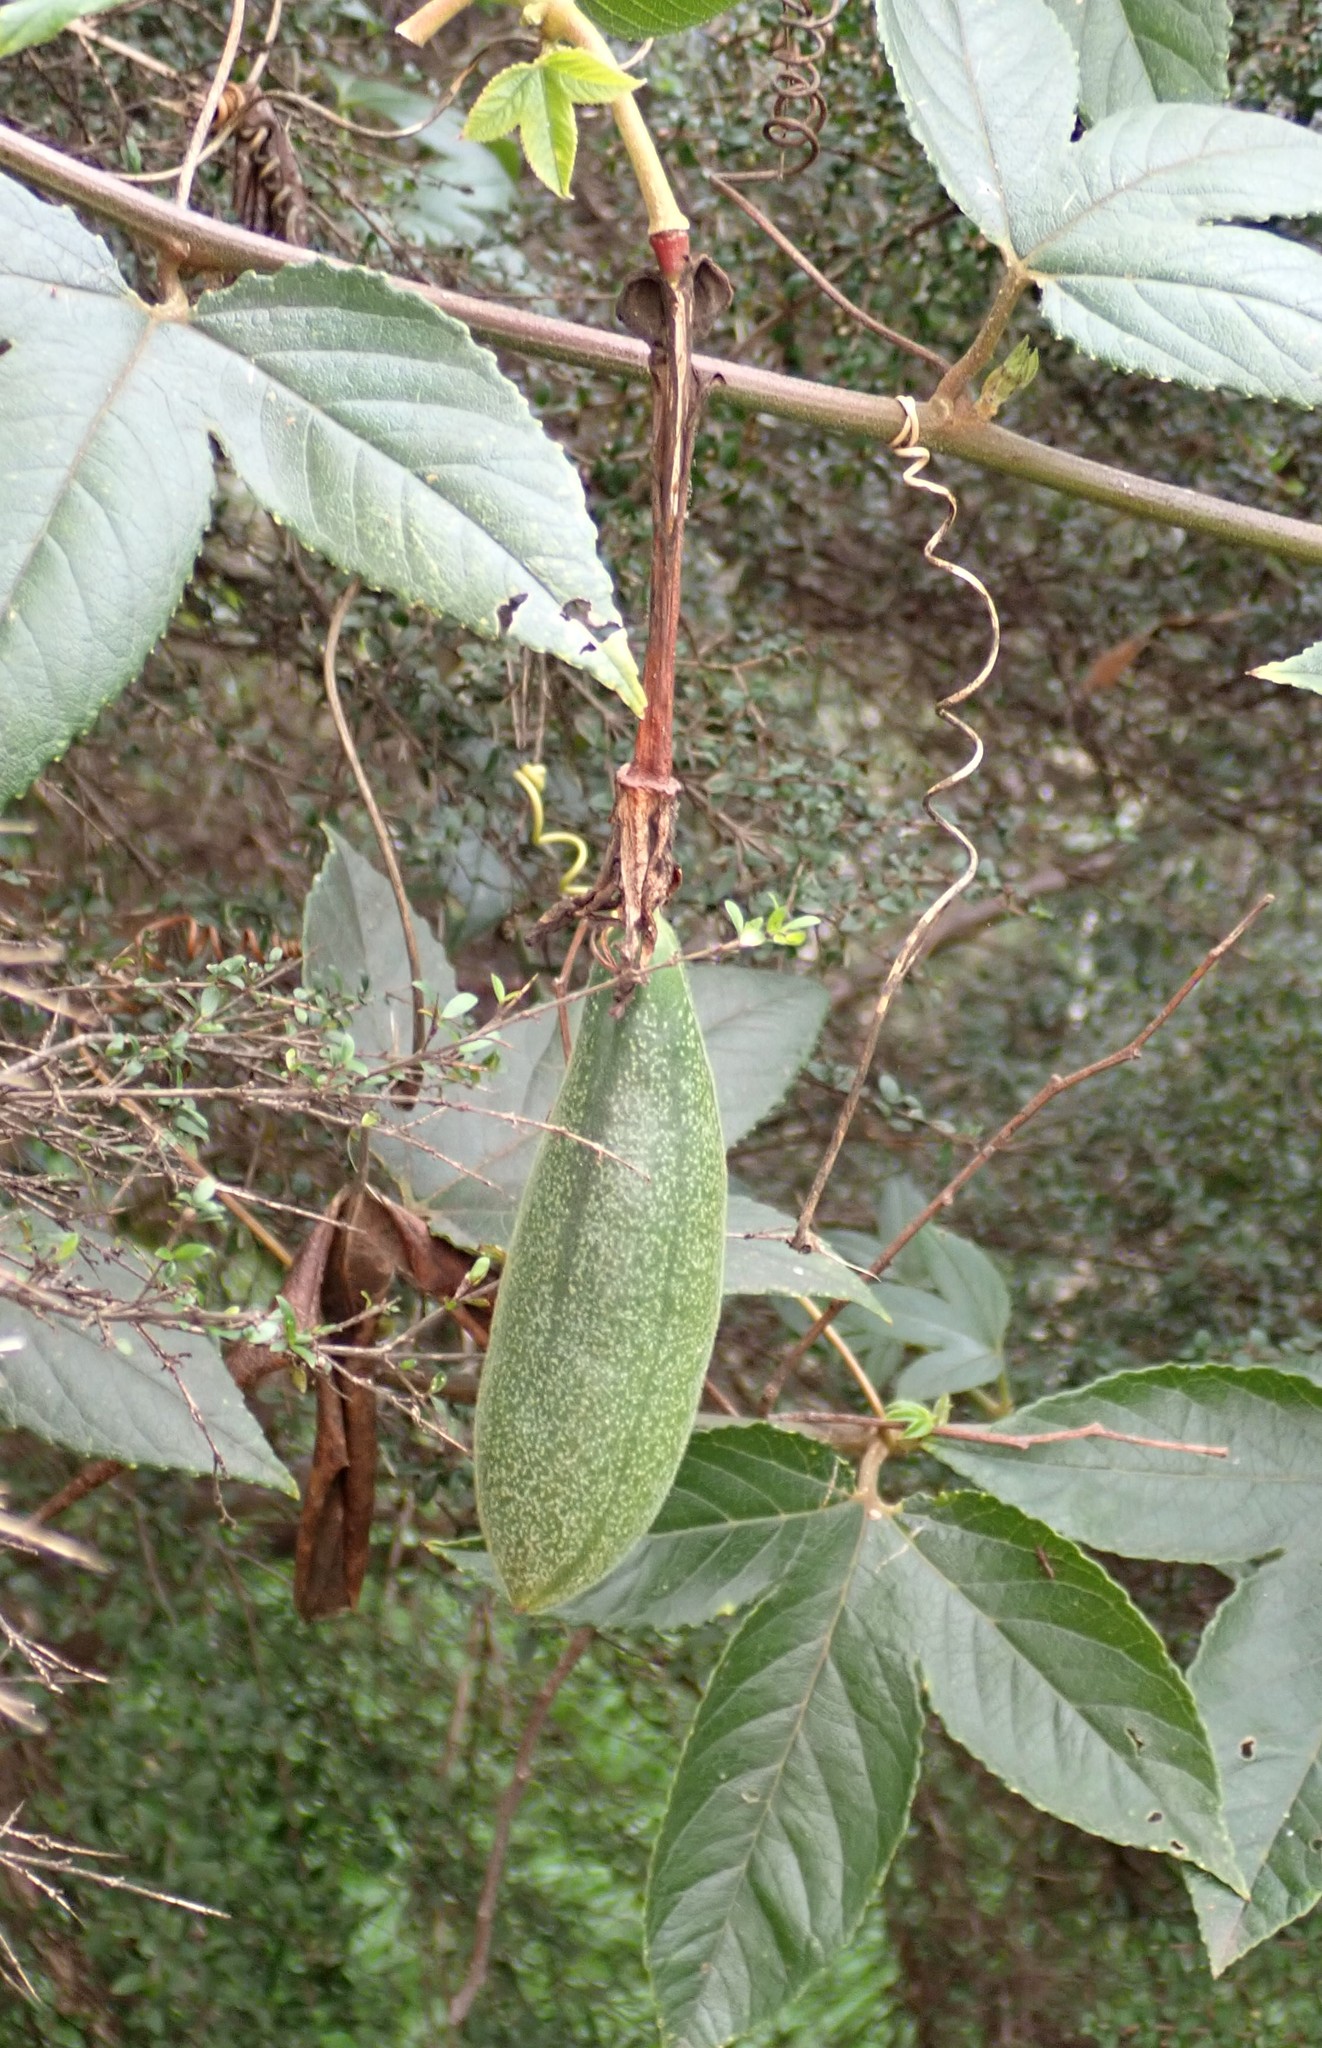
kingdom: Plantae
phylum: Tracheophyta
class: Magnoliopsida
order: Malpighiales
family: Passifloraceae
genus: Passiflora
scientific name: Passiflora tarminiana
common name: Banana poka
